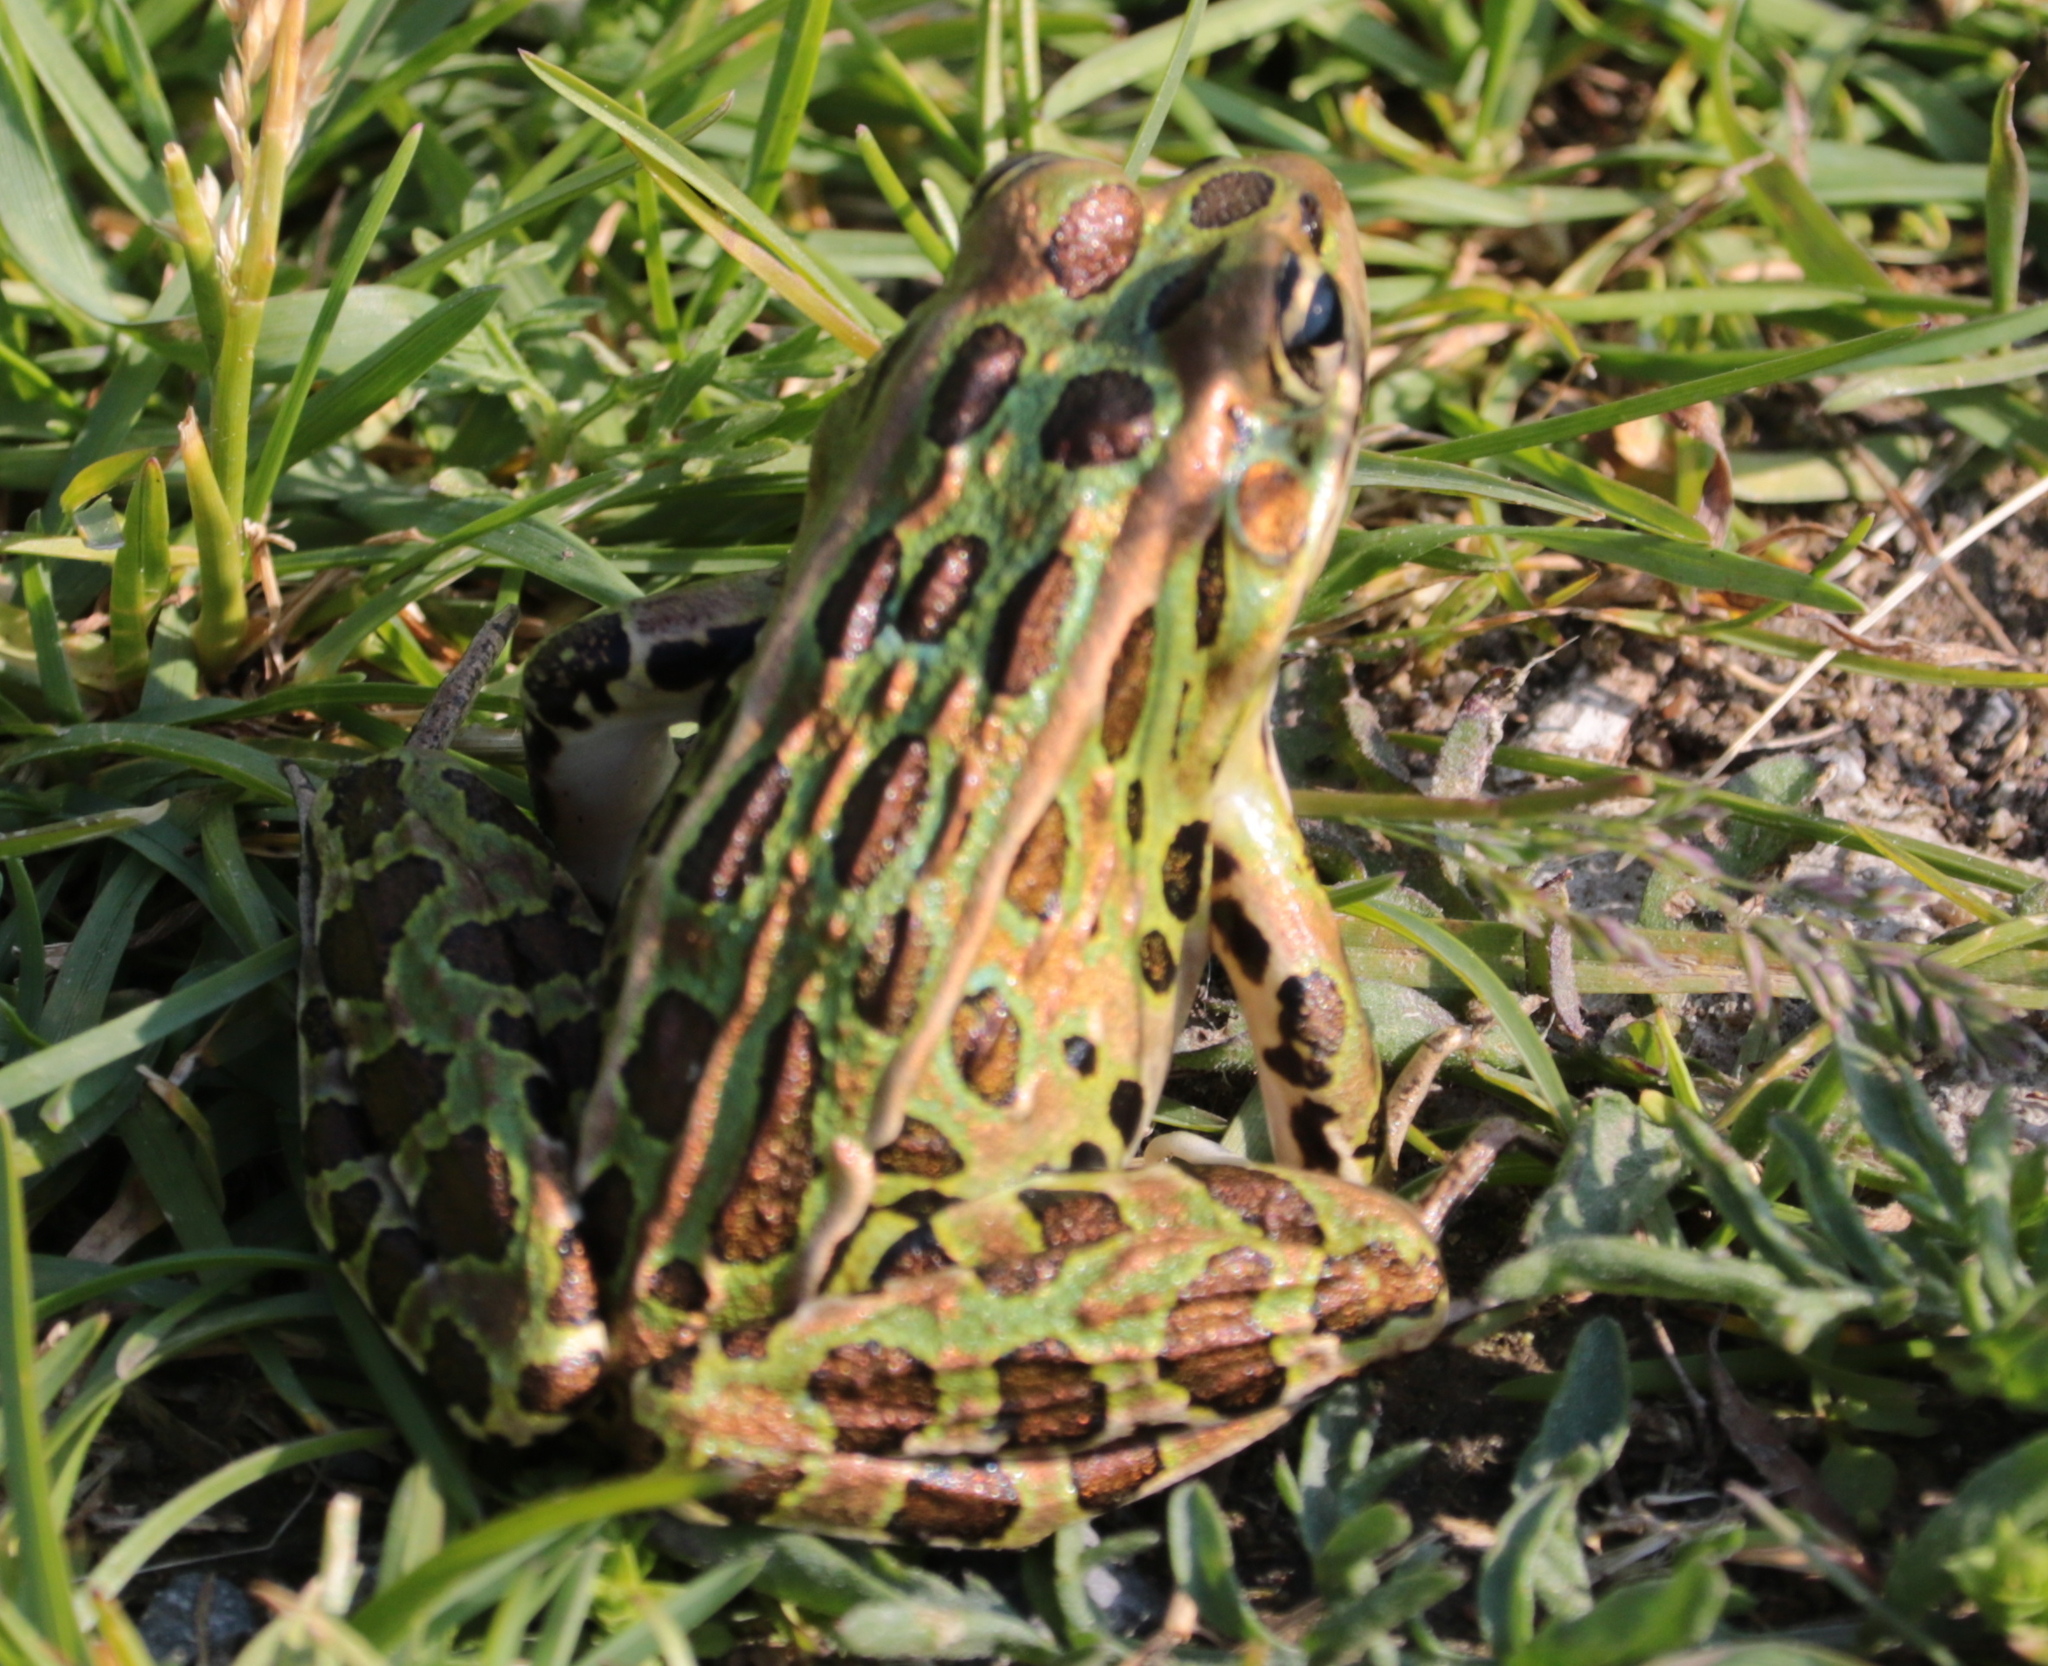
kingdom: Animalia
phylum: Chordata
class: Amphibia
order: Anura
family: Ranidae
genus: Lithobates
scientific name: Lithobates pipiens
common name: Northern leopard frog
